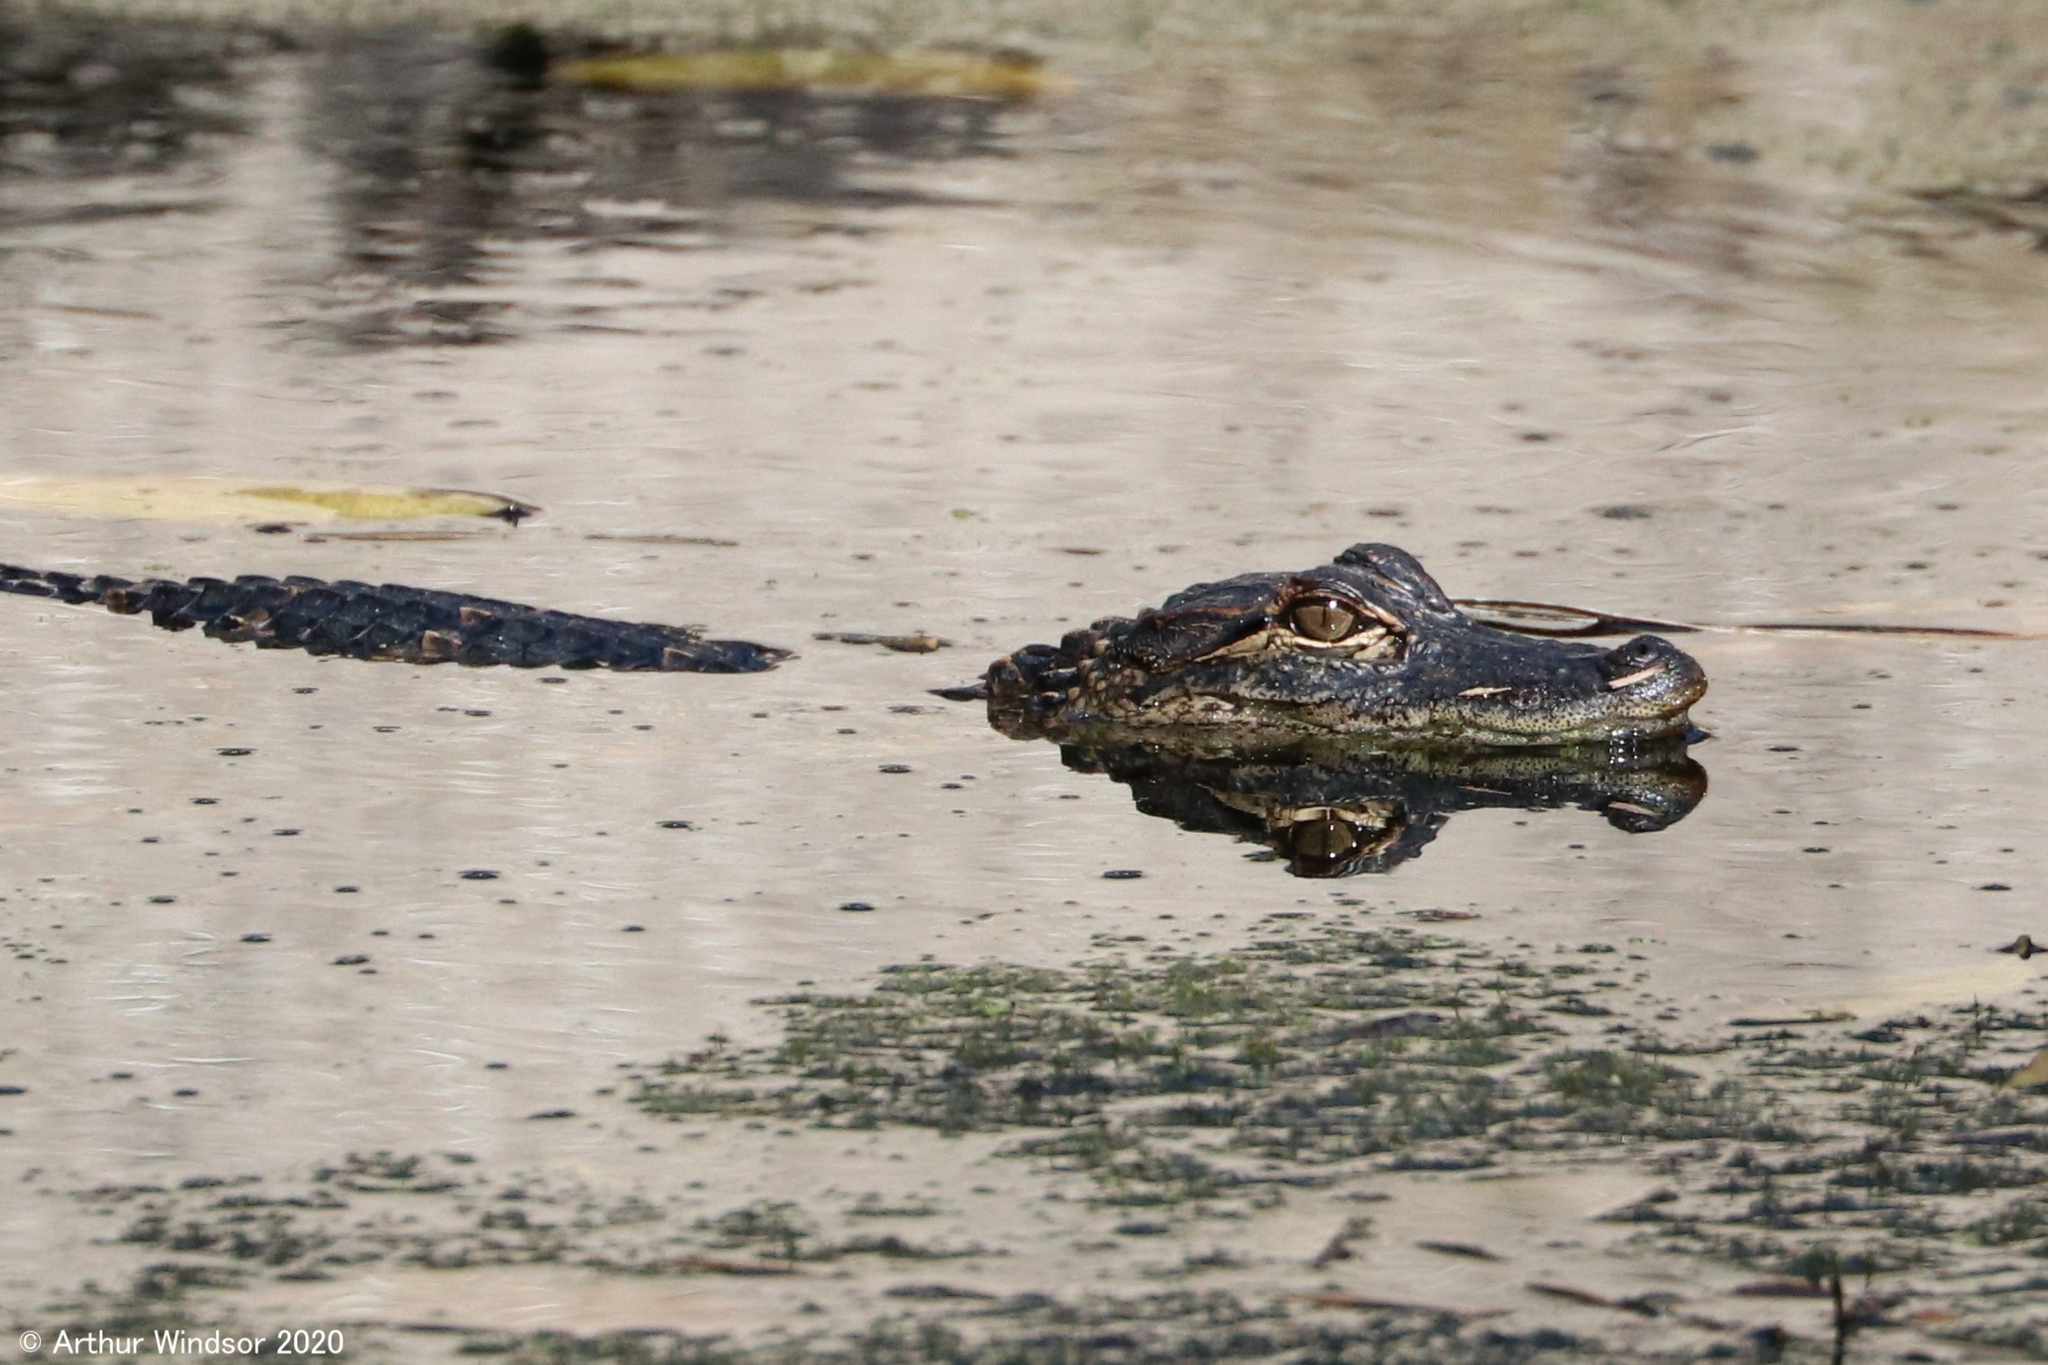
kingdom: Animalia
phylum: Chordata
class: Crocodylia
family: Alligatoridae
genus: Alligator
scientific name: Alligator mississippiensis
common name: American alligator
